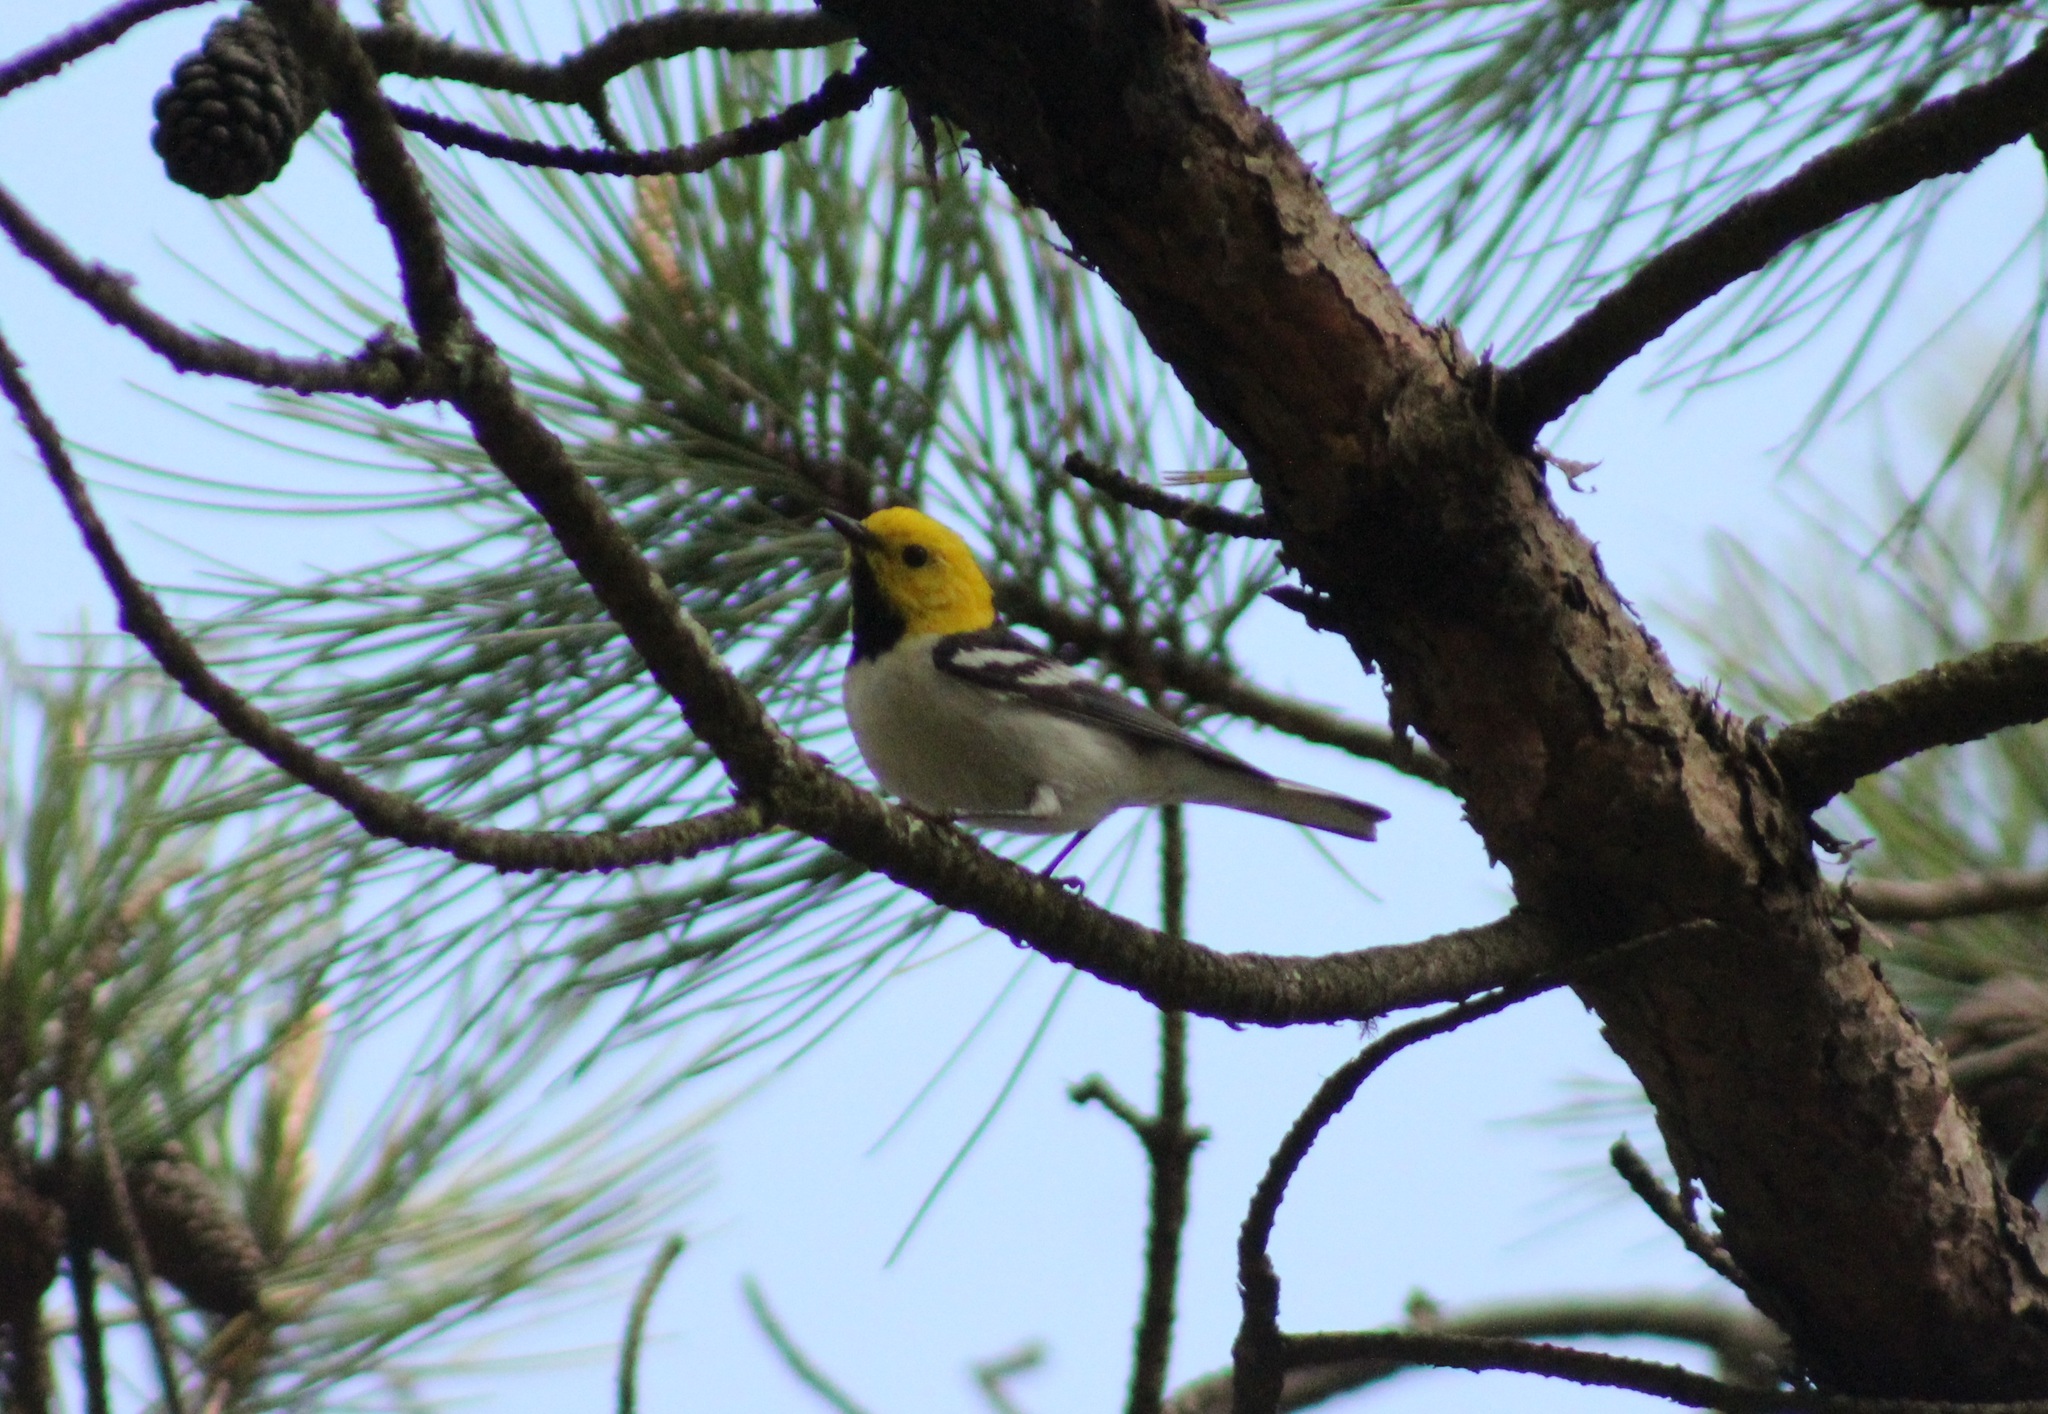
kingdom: Animalia
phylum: Chordata
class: Aves
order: Passeriformes
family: Parulidae
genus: Setophaga
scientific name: Setophaga occidentalis
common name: Hermit warbler
